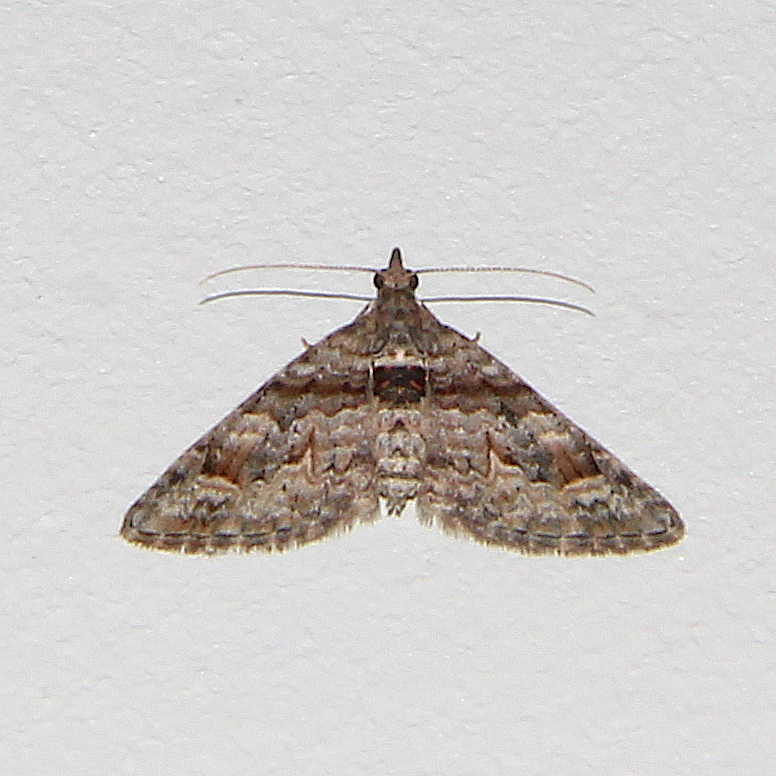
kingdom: Animalia
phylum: Arthropoda
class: Insecta
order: Lepidoptera
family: Geometridae
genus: Phrissogonus
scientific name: Phrissogonus laticostata
